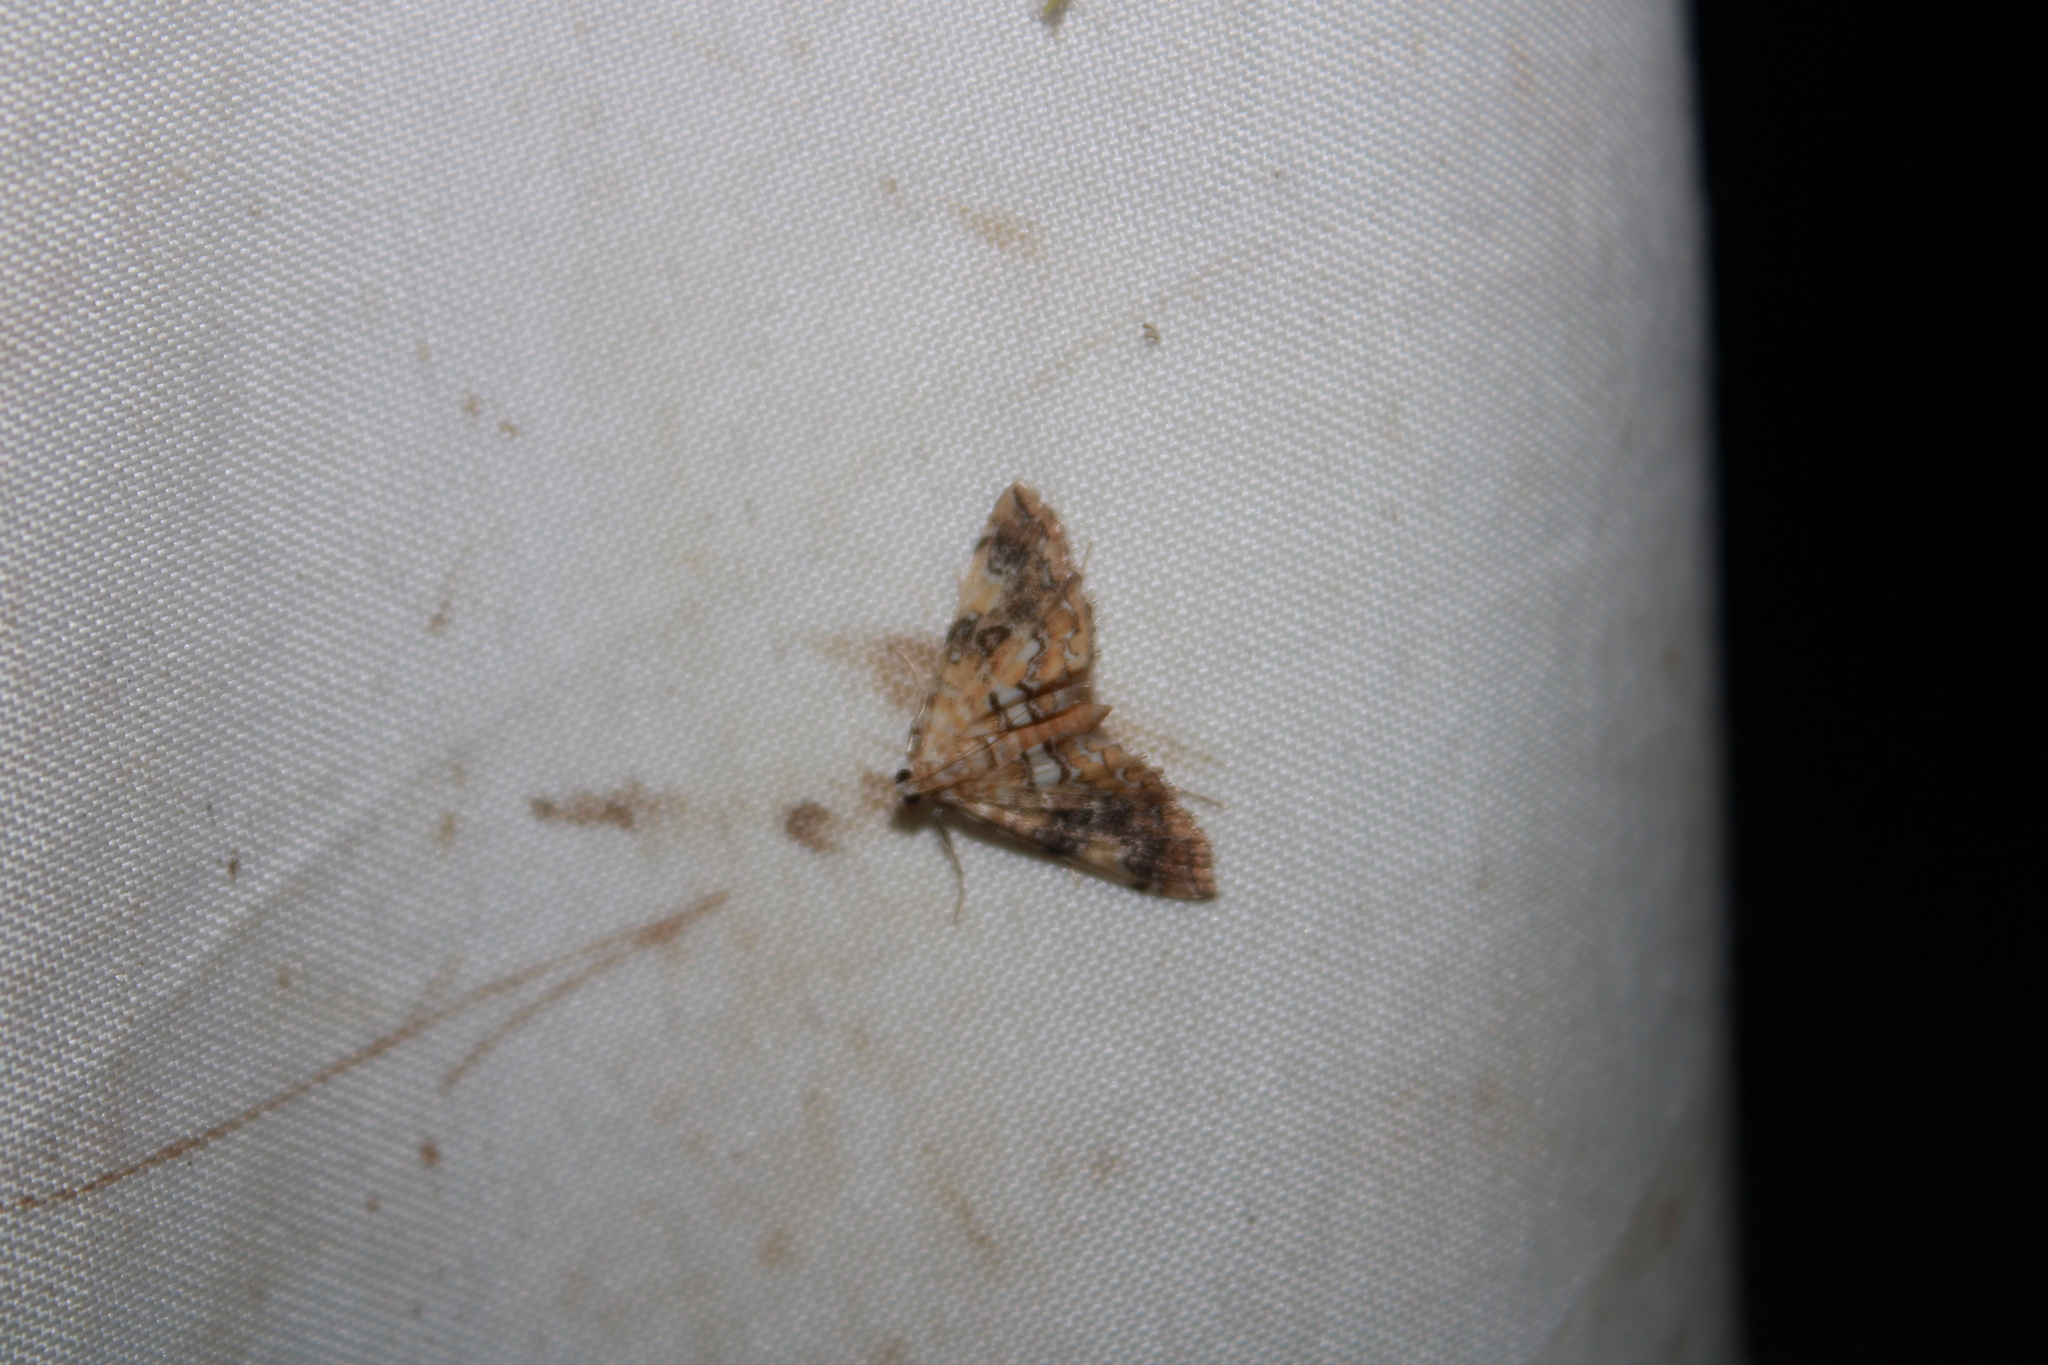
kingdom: Animalia
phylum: Arthropoda
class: Insecta
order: Lepidoptera
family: Crambidae
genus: Elophila
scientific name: Elophila nebulosalis
